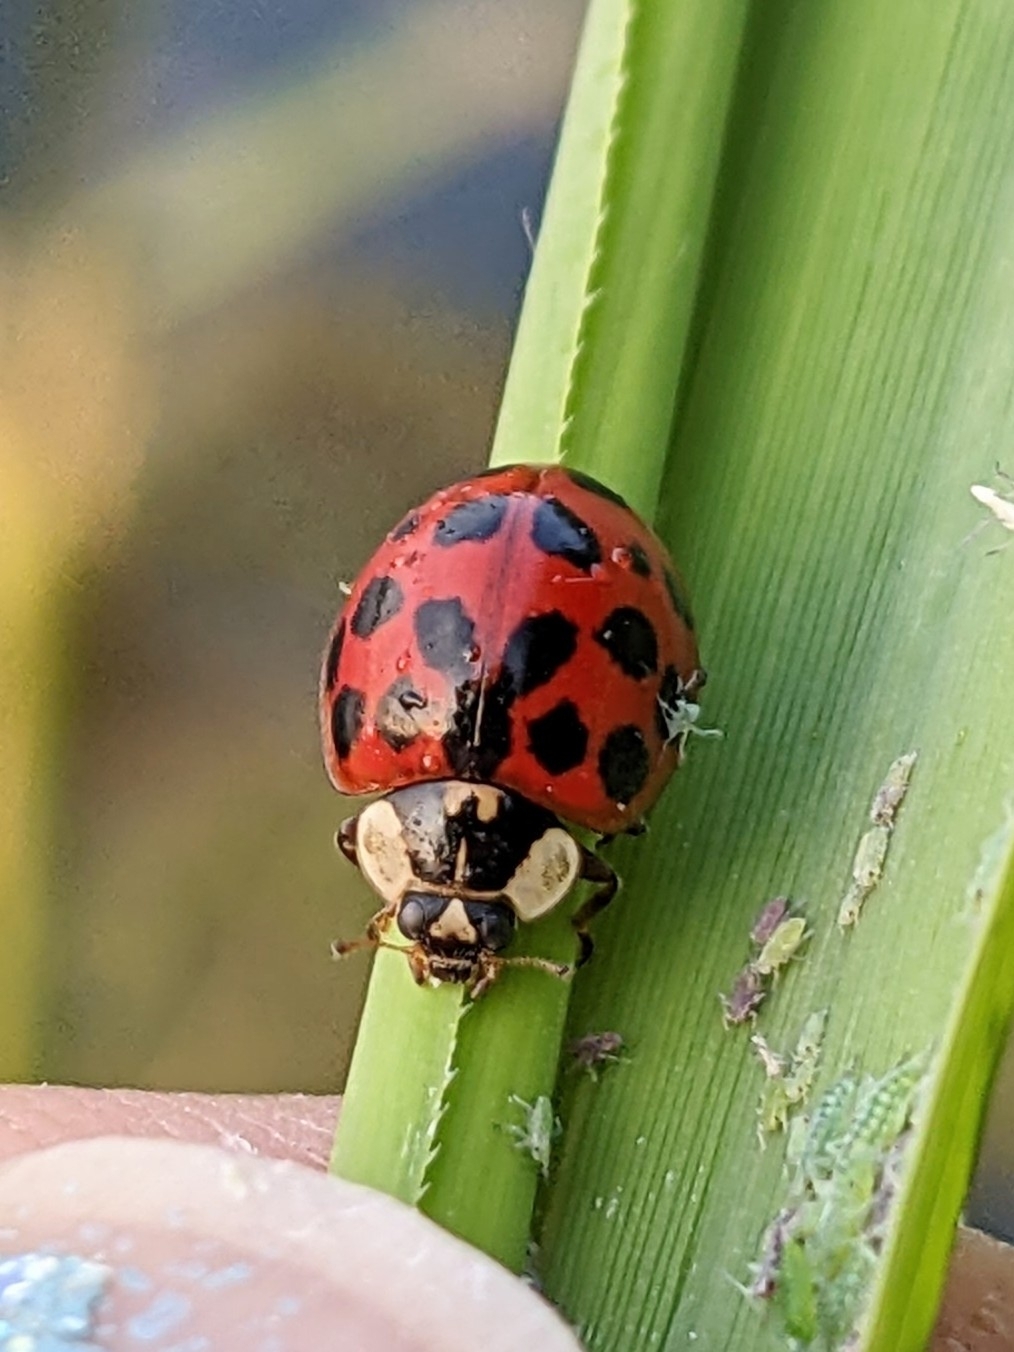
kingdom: Animalia
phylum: Arthropoda
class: Insecta
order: Coleoptera
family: Coccinellidae
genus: Harmonia
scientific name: Harmonia axyridis
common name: Harlequin ladybird
